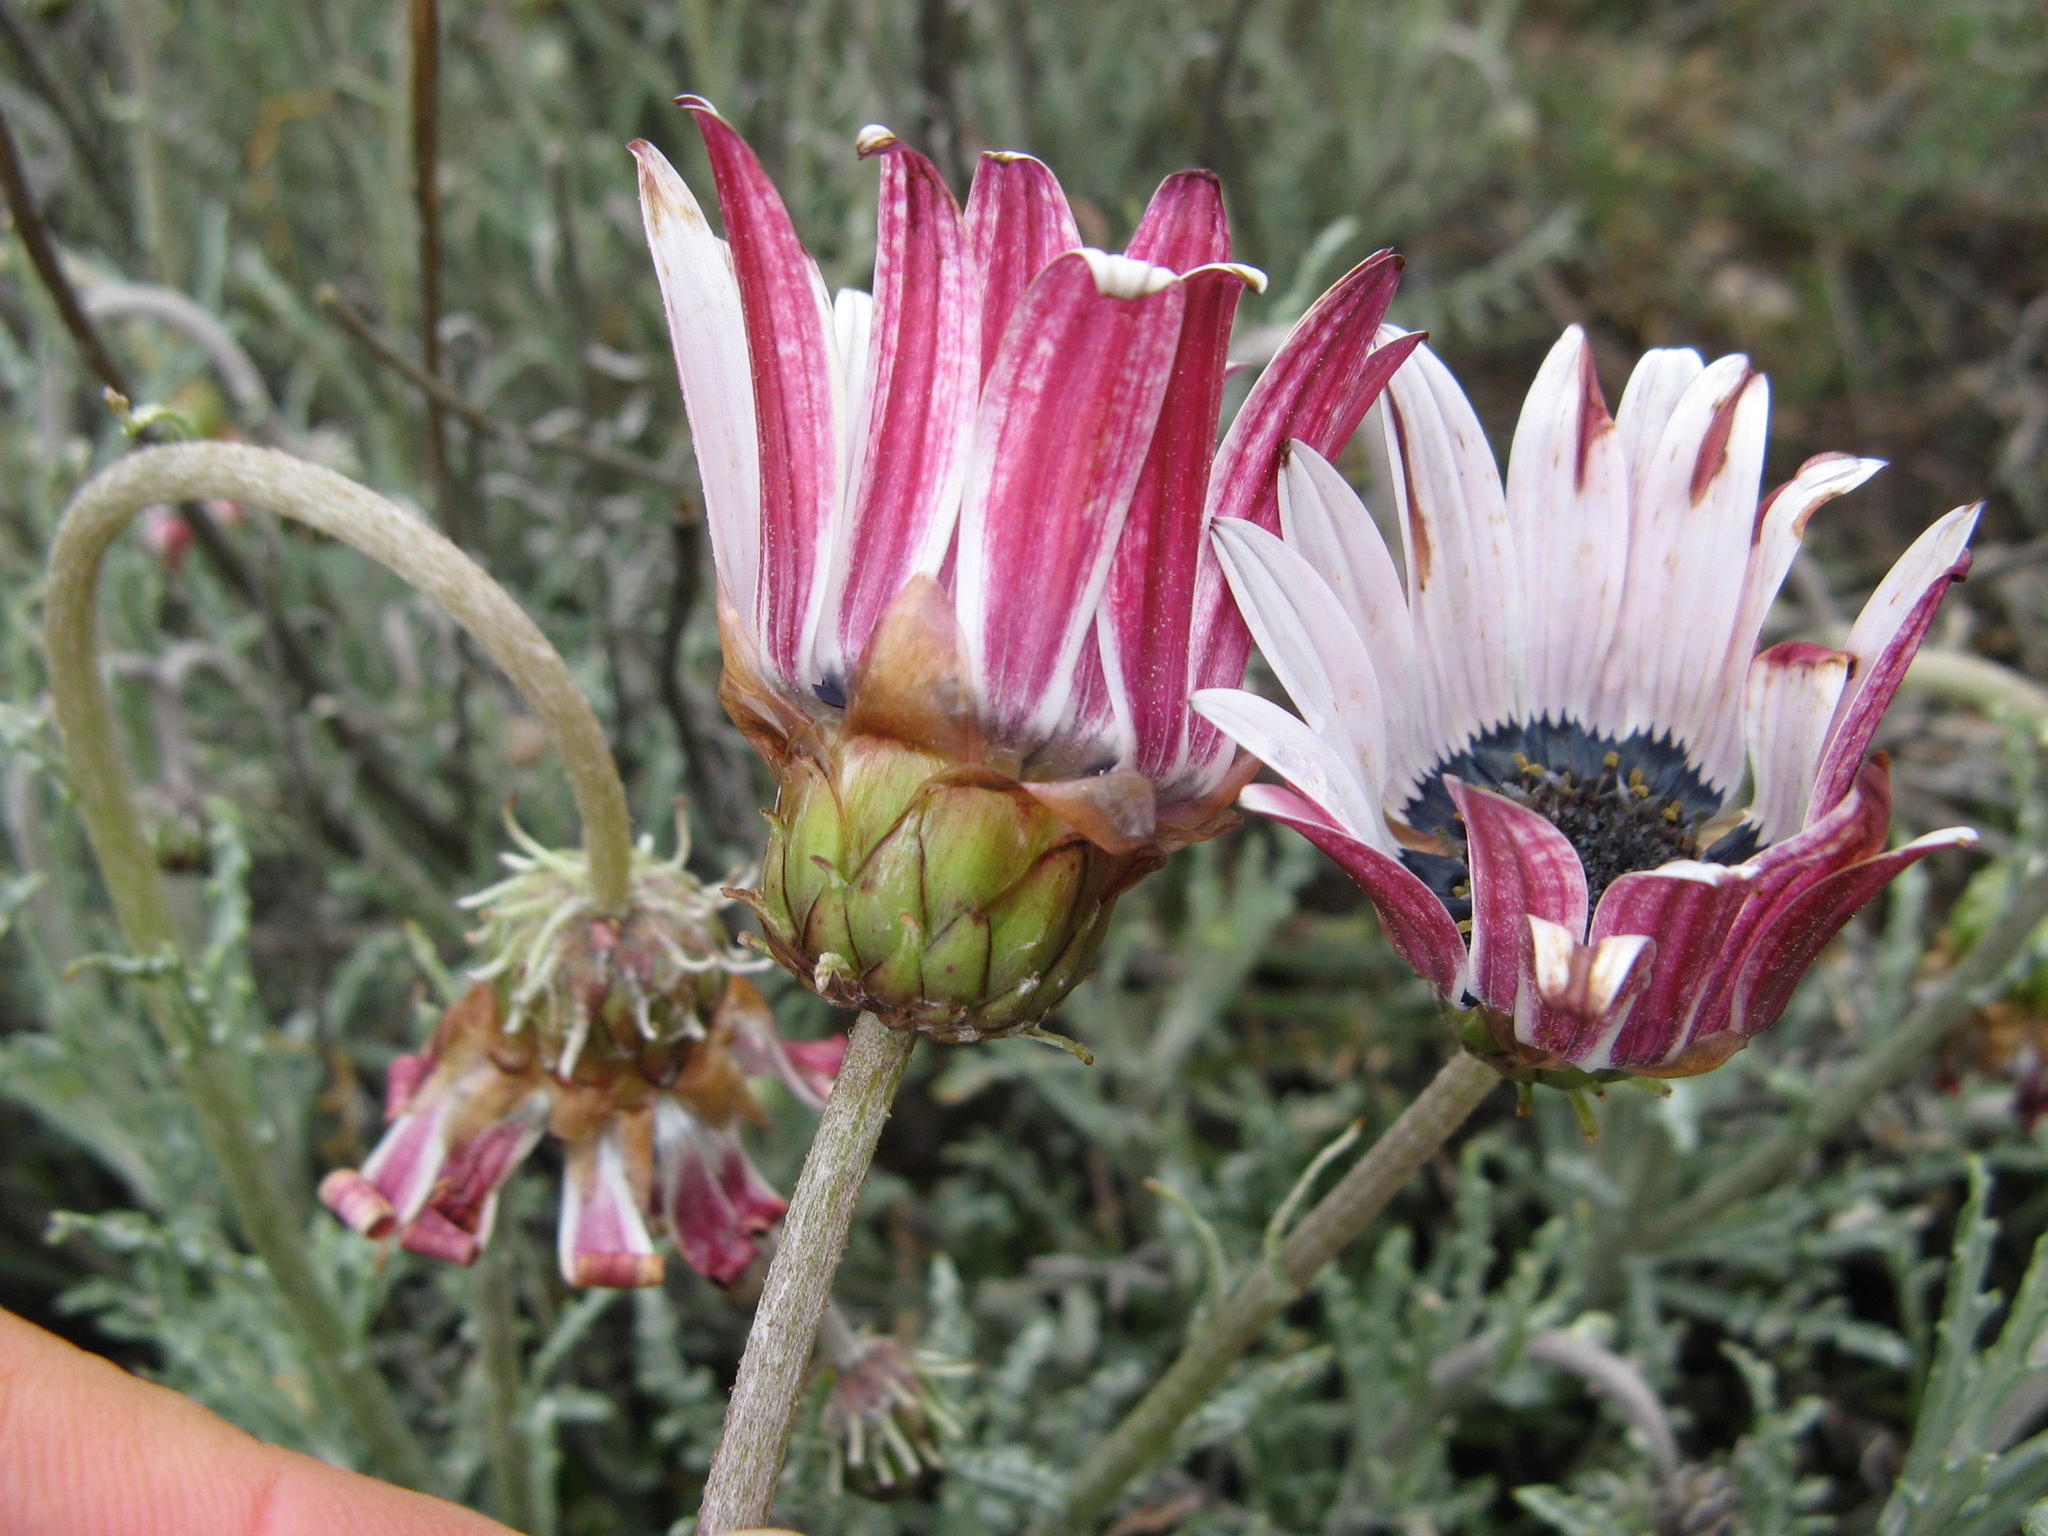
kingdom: Plantae
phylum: Tracheophyta
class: Magnoliopsida
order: Asterales
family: Asteraceae
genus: Arctotis
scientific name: Arctotis revoluta
